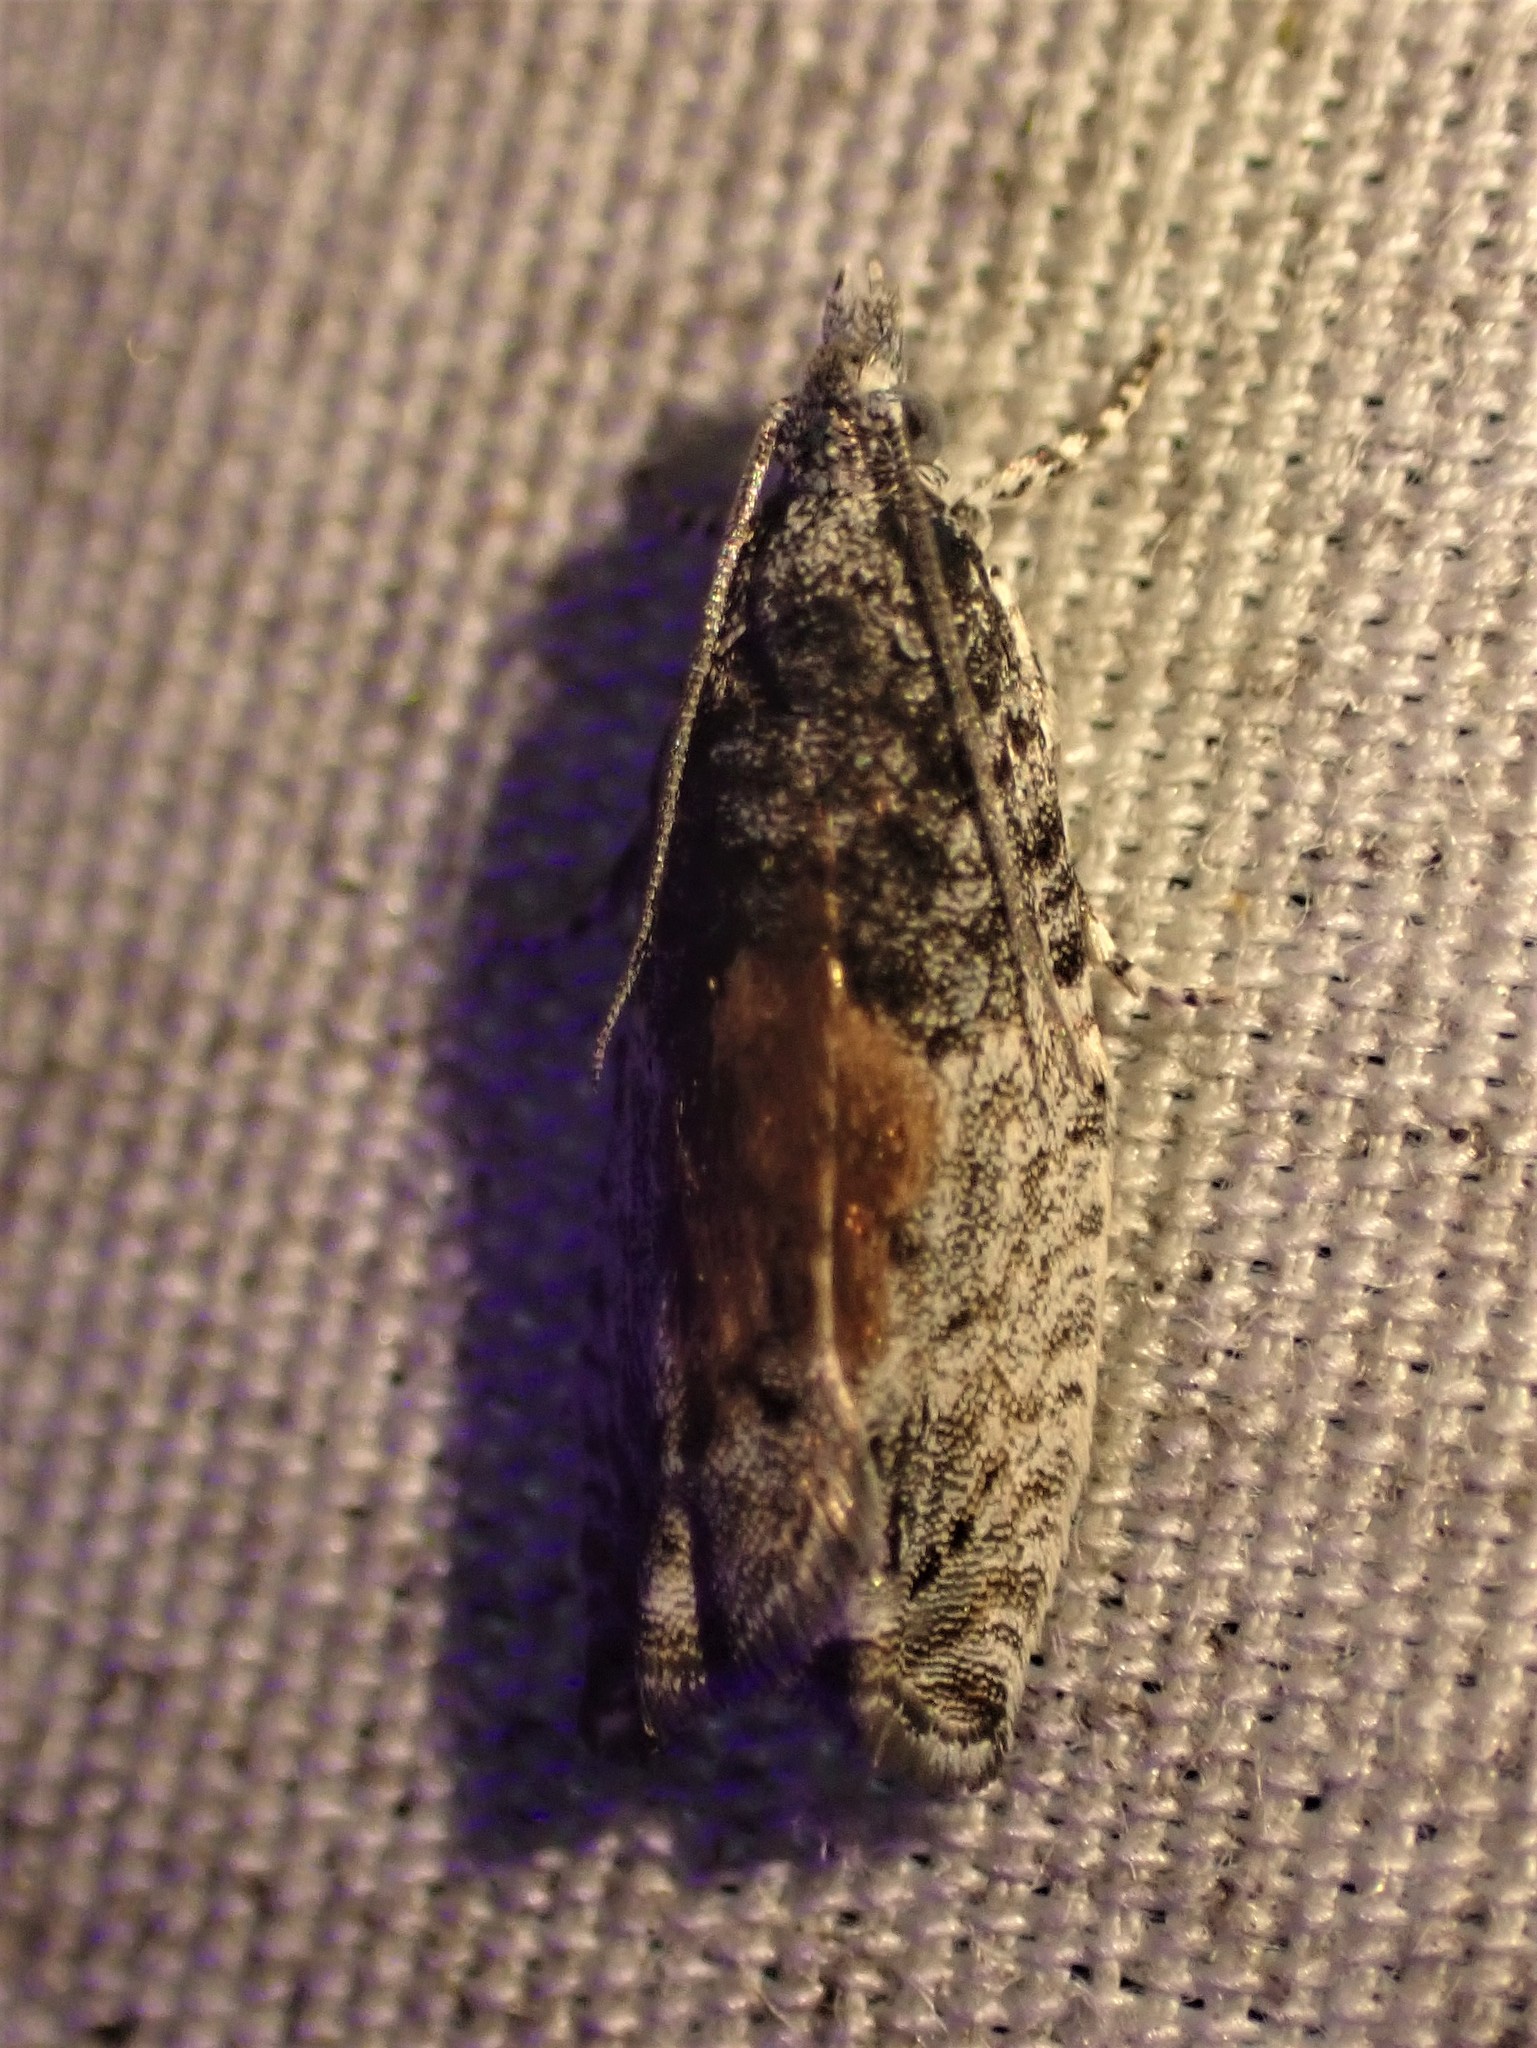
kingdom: Animalia
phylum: Arthropoda
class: Insecta
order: Lepidoptera
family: Tortricidae
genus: Epinotia
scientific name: Epinotia nisella
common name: Grey poplar bell
